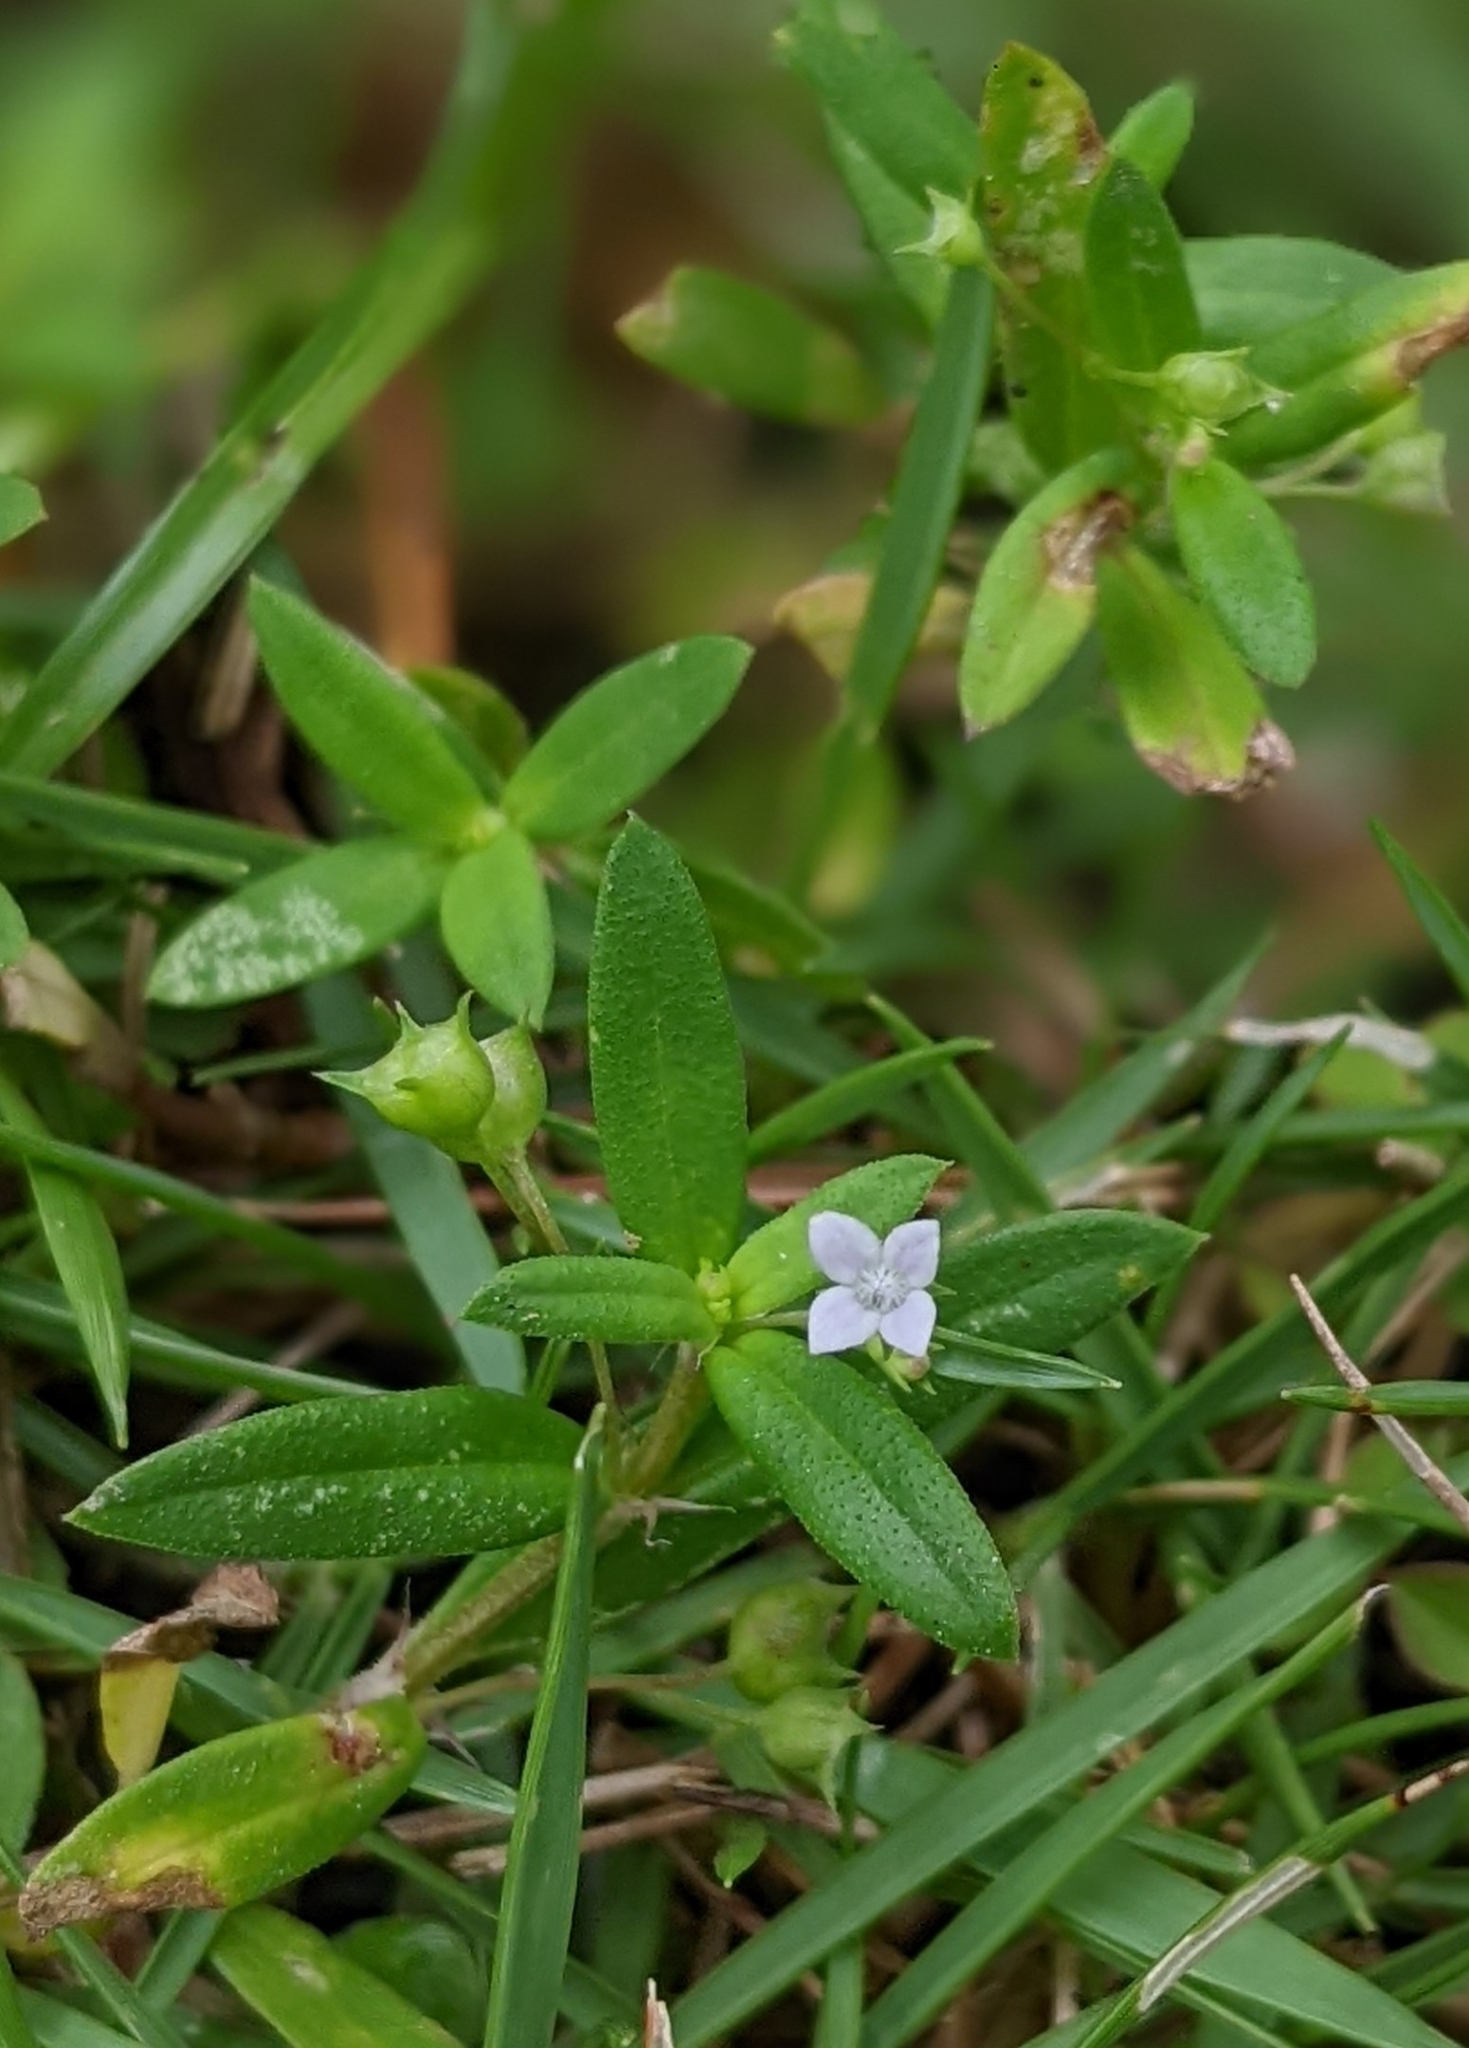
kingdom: Plantae
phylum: Tracheophyta
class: Magnoliopsida
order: Gentianales
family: Rubiaceae
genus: Oldenlandia
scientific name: Oldenlandia corymbosa
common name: Flat-top mille graines
